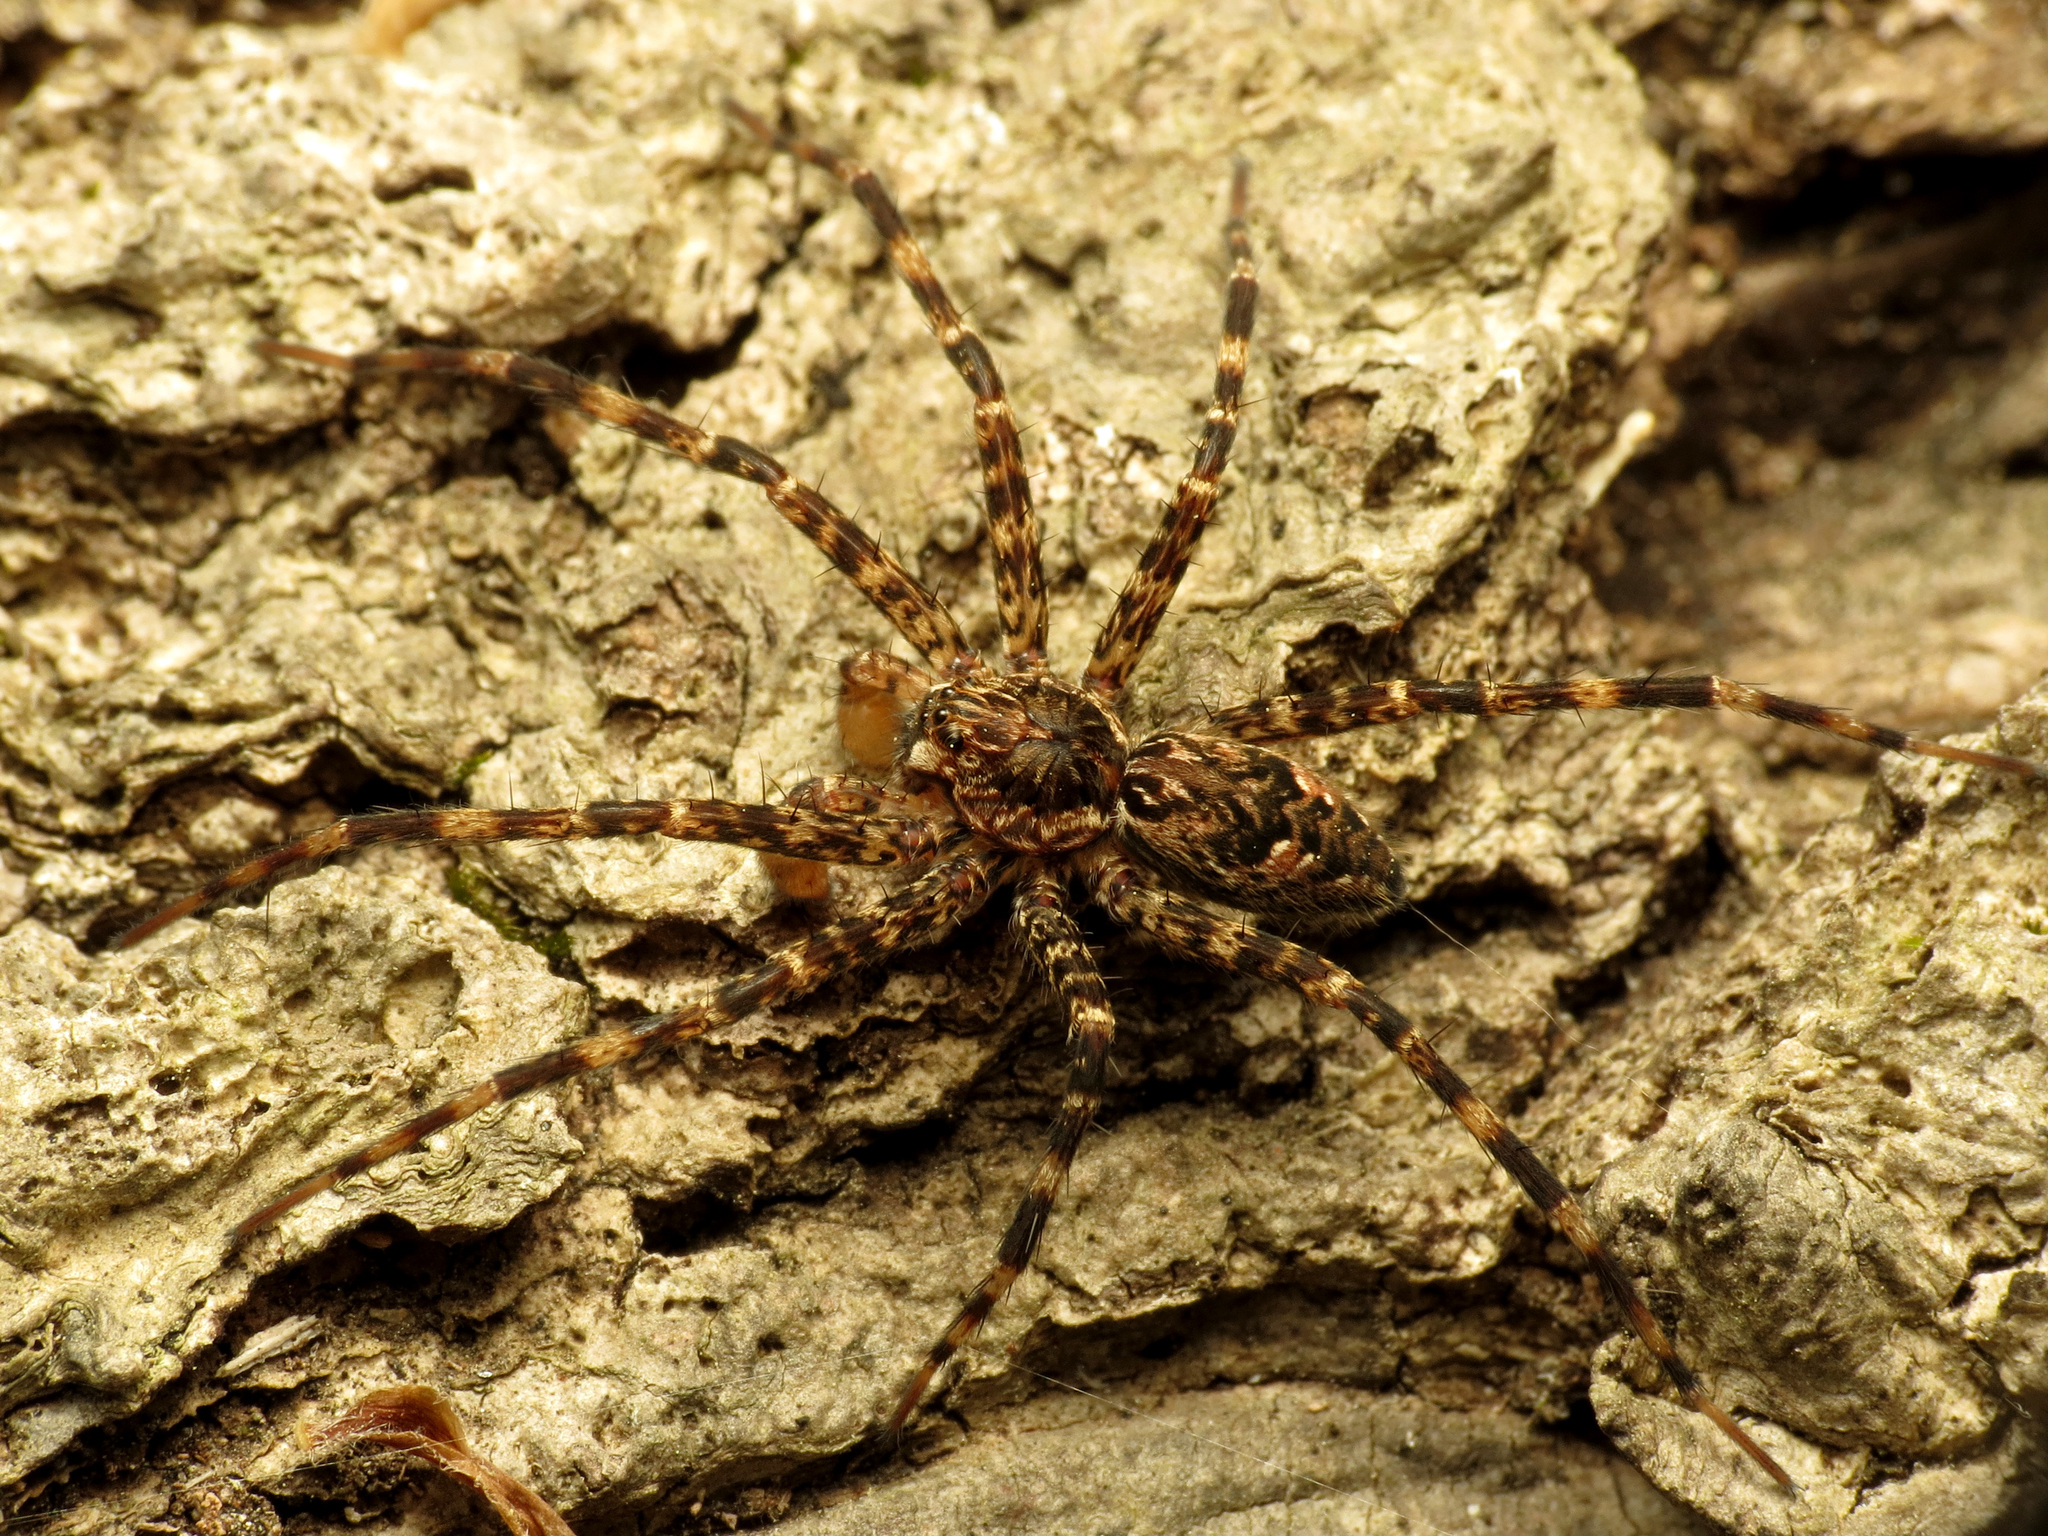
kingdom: Animalia
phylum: Arthropoda
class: Arachnida
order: Araneae
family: Pisauridae
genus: Dolomedes
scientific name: Dolomedes tenebrosus
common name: Dark fishing spider
